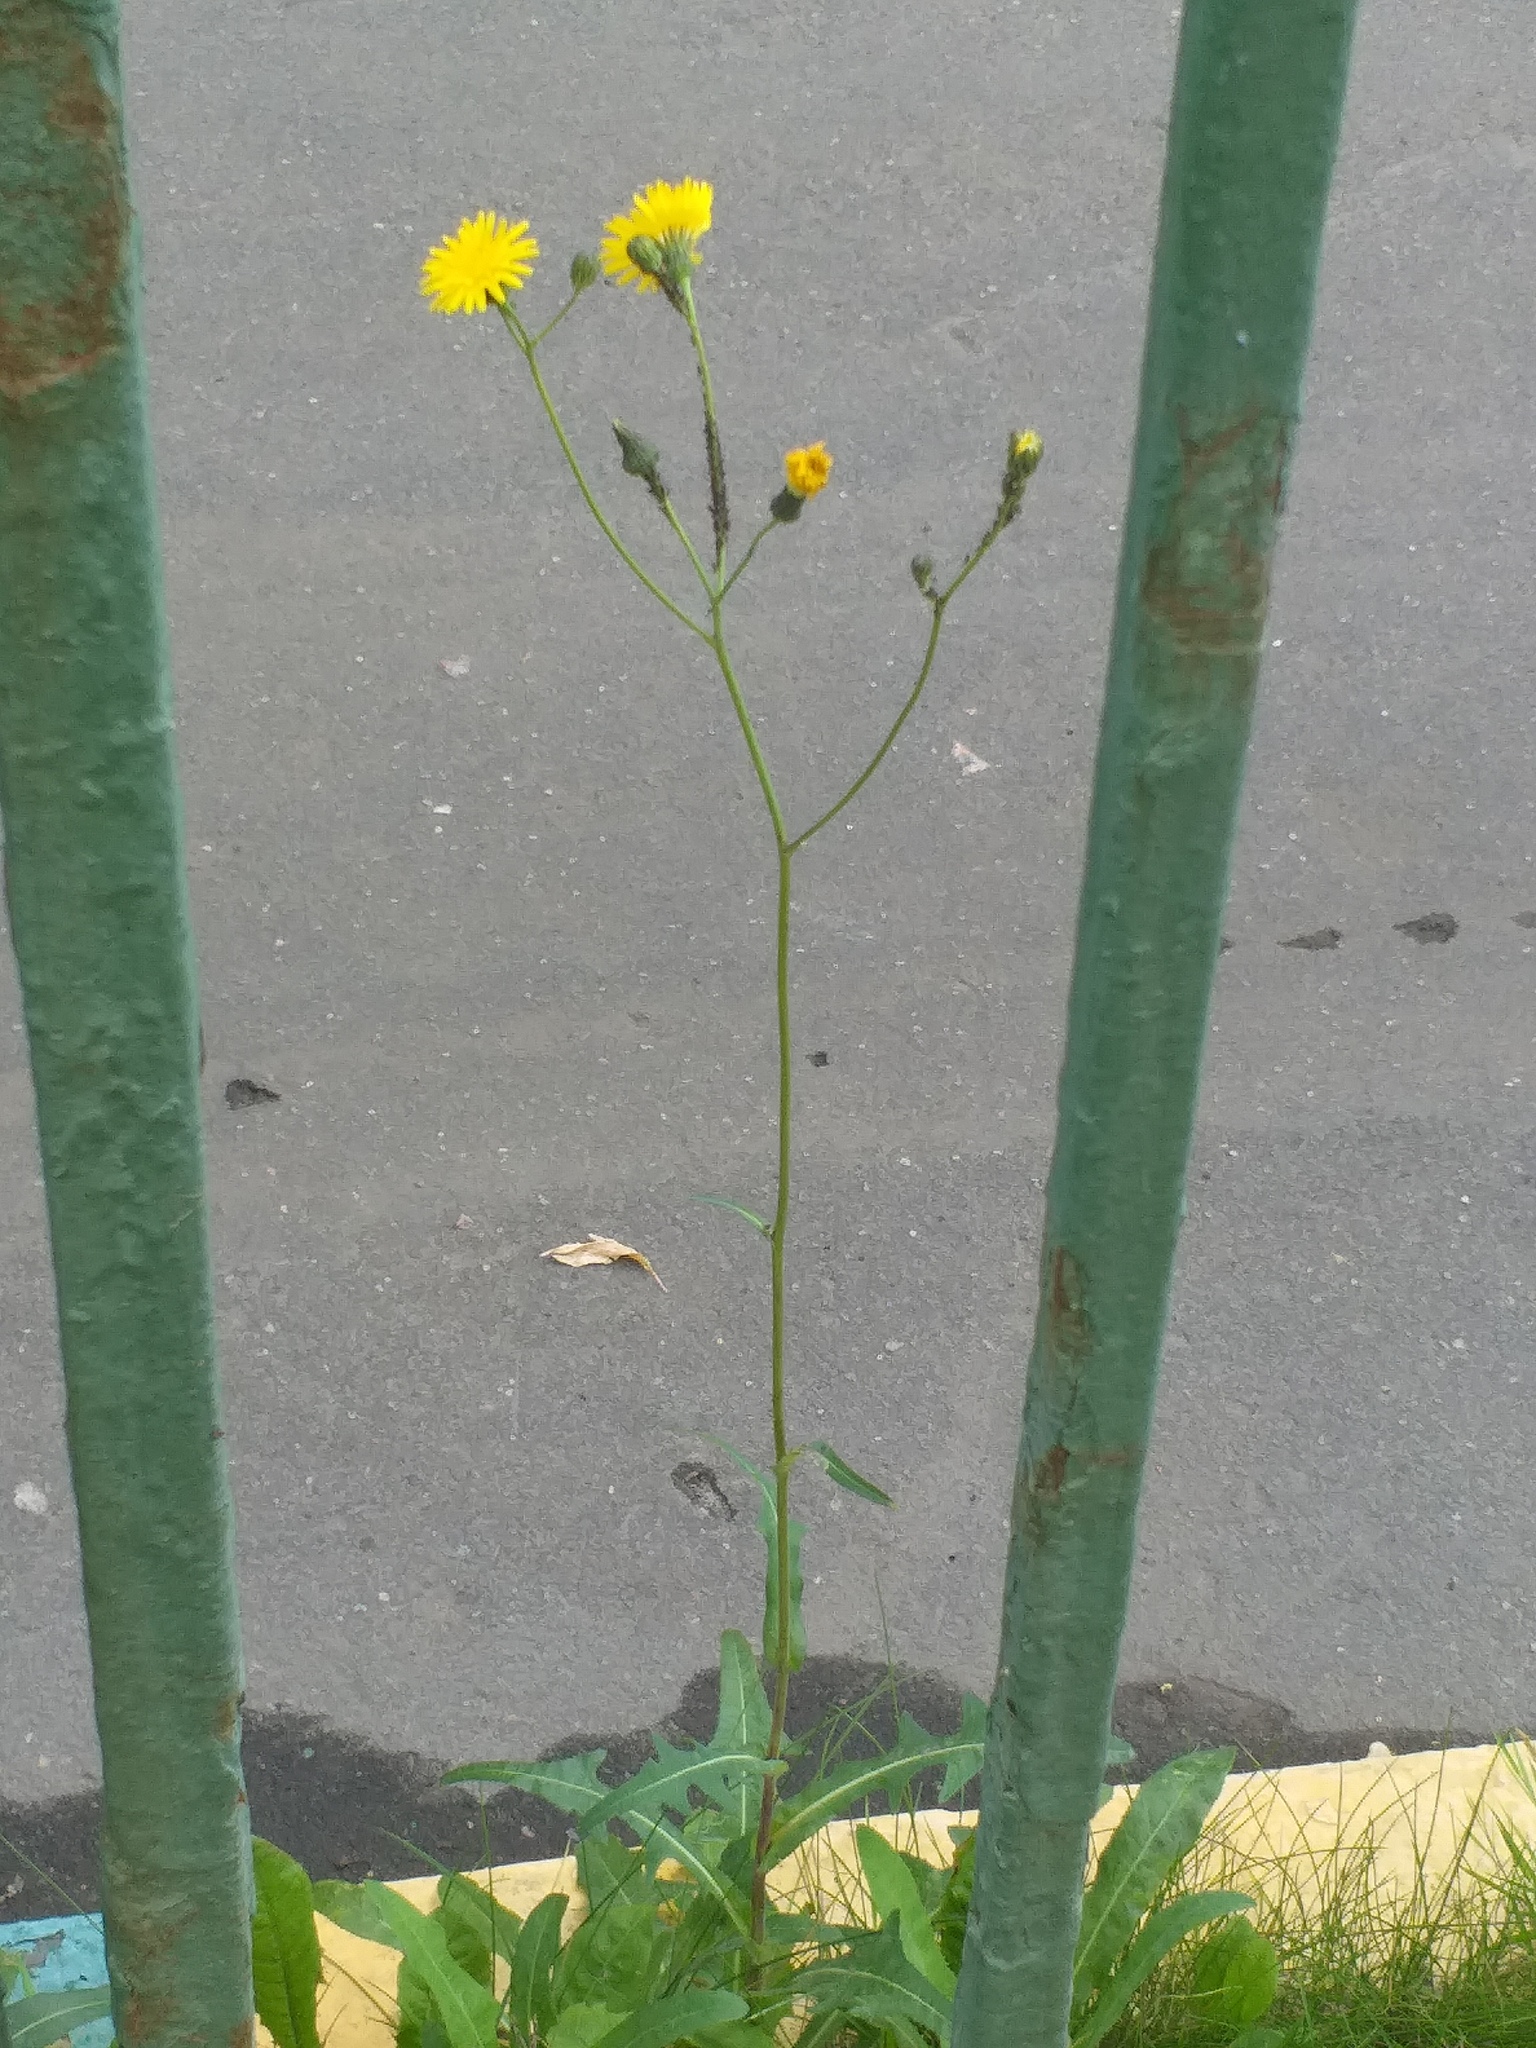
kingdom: Plantae
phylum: Tracheophyta
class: Magnoliopsida
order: Asterales
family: Asteraceae
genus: Sonchus
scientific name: Sonchus arvensis
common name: Perennial sow-thistle
